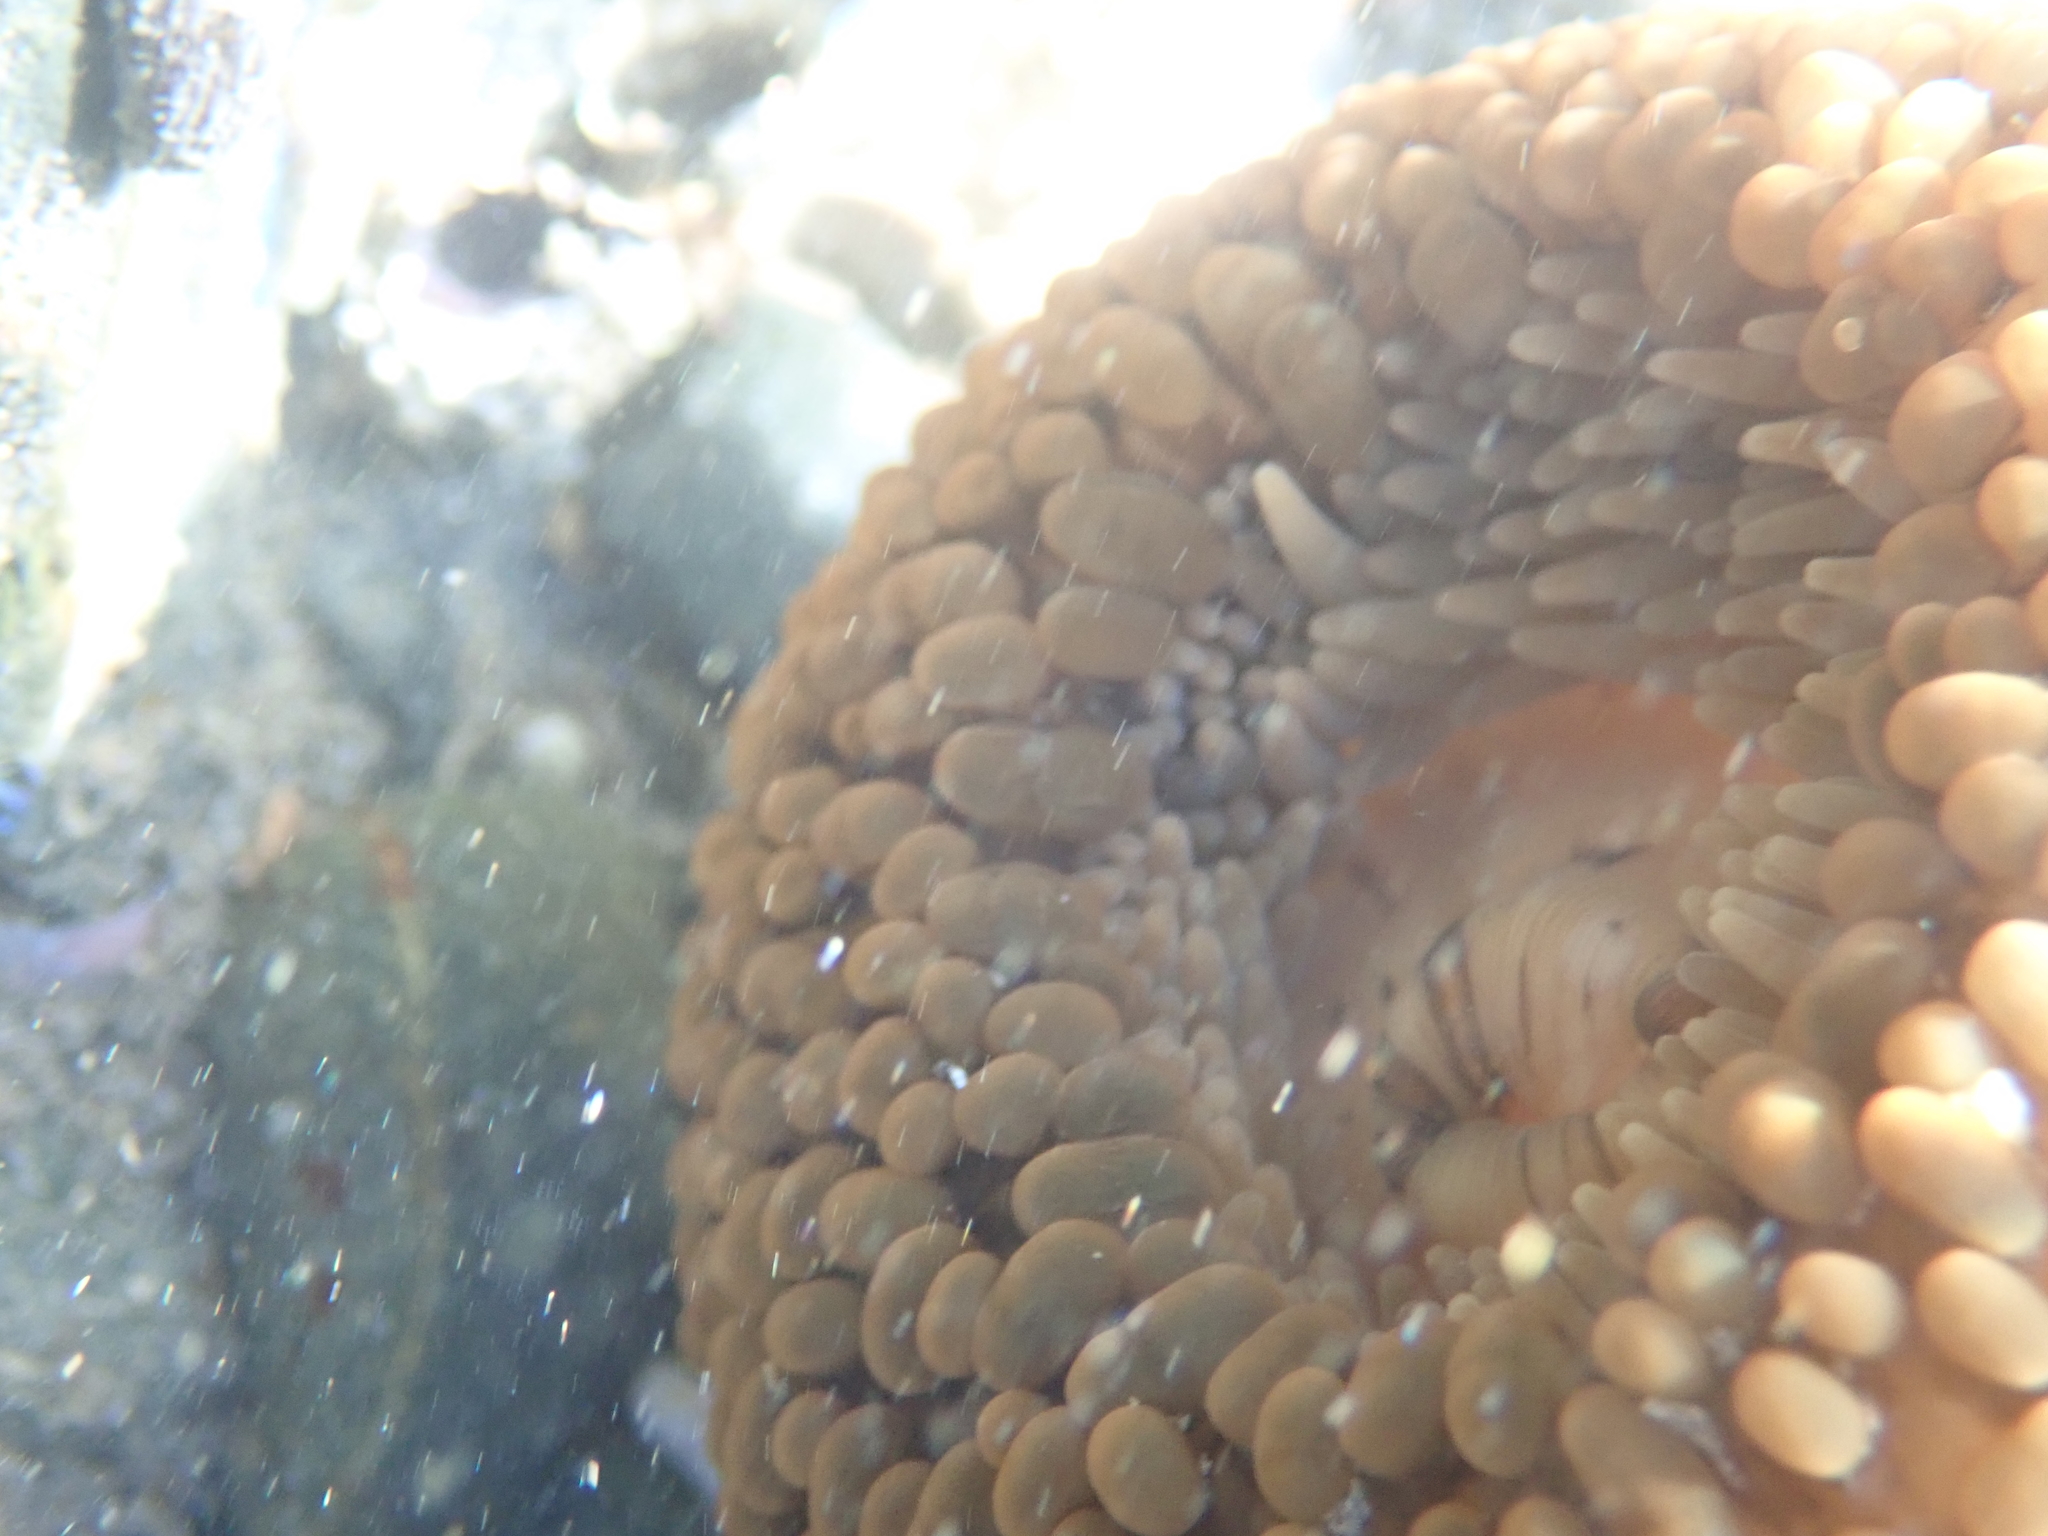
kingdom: Animalia
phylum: Cnidaria
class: Anthozoa
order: Actiniaria
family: Actiniidae
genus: Phlyctenactis
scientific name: Phlyctenactis tuberculosa
